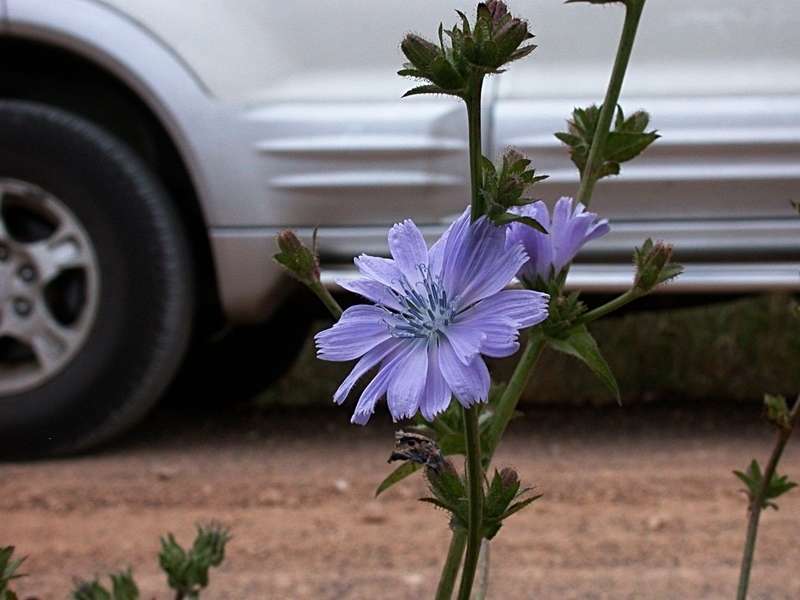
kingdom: Plantae
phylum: Tracheophyta
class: Magnoliopsida
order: Asterales
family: Asteraceae
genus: Cichorium
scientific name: Cichorium intybus
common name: Chicory
